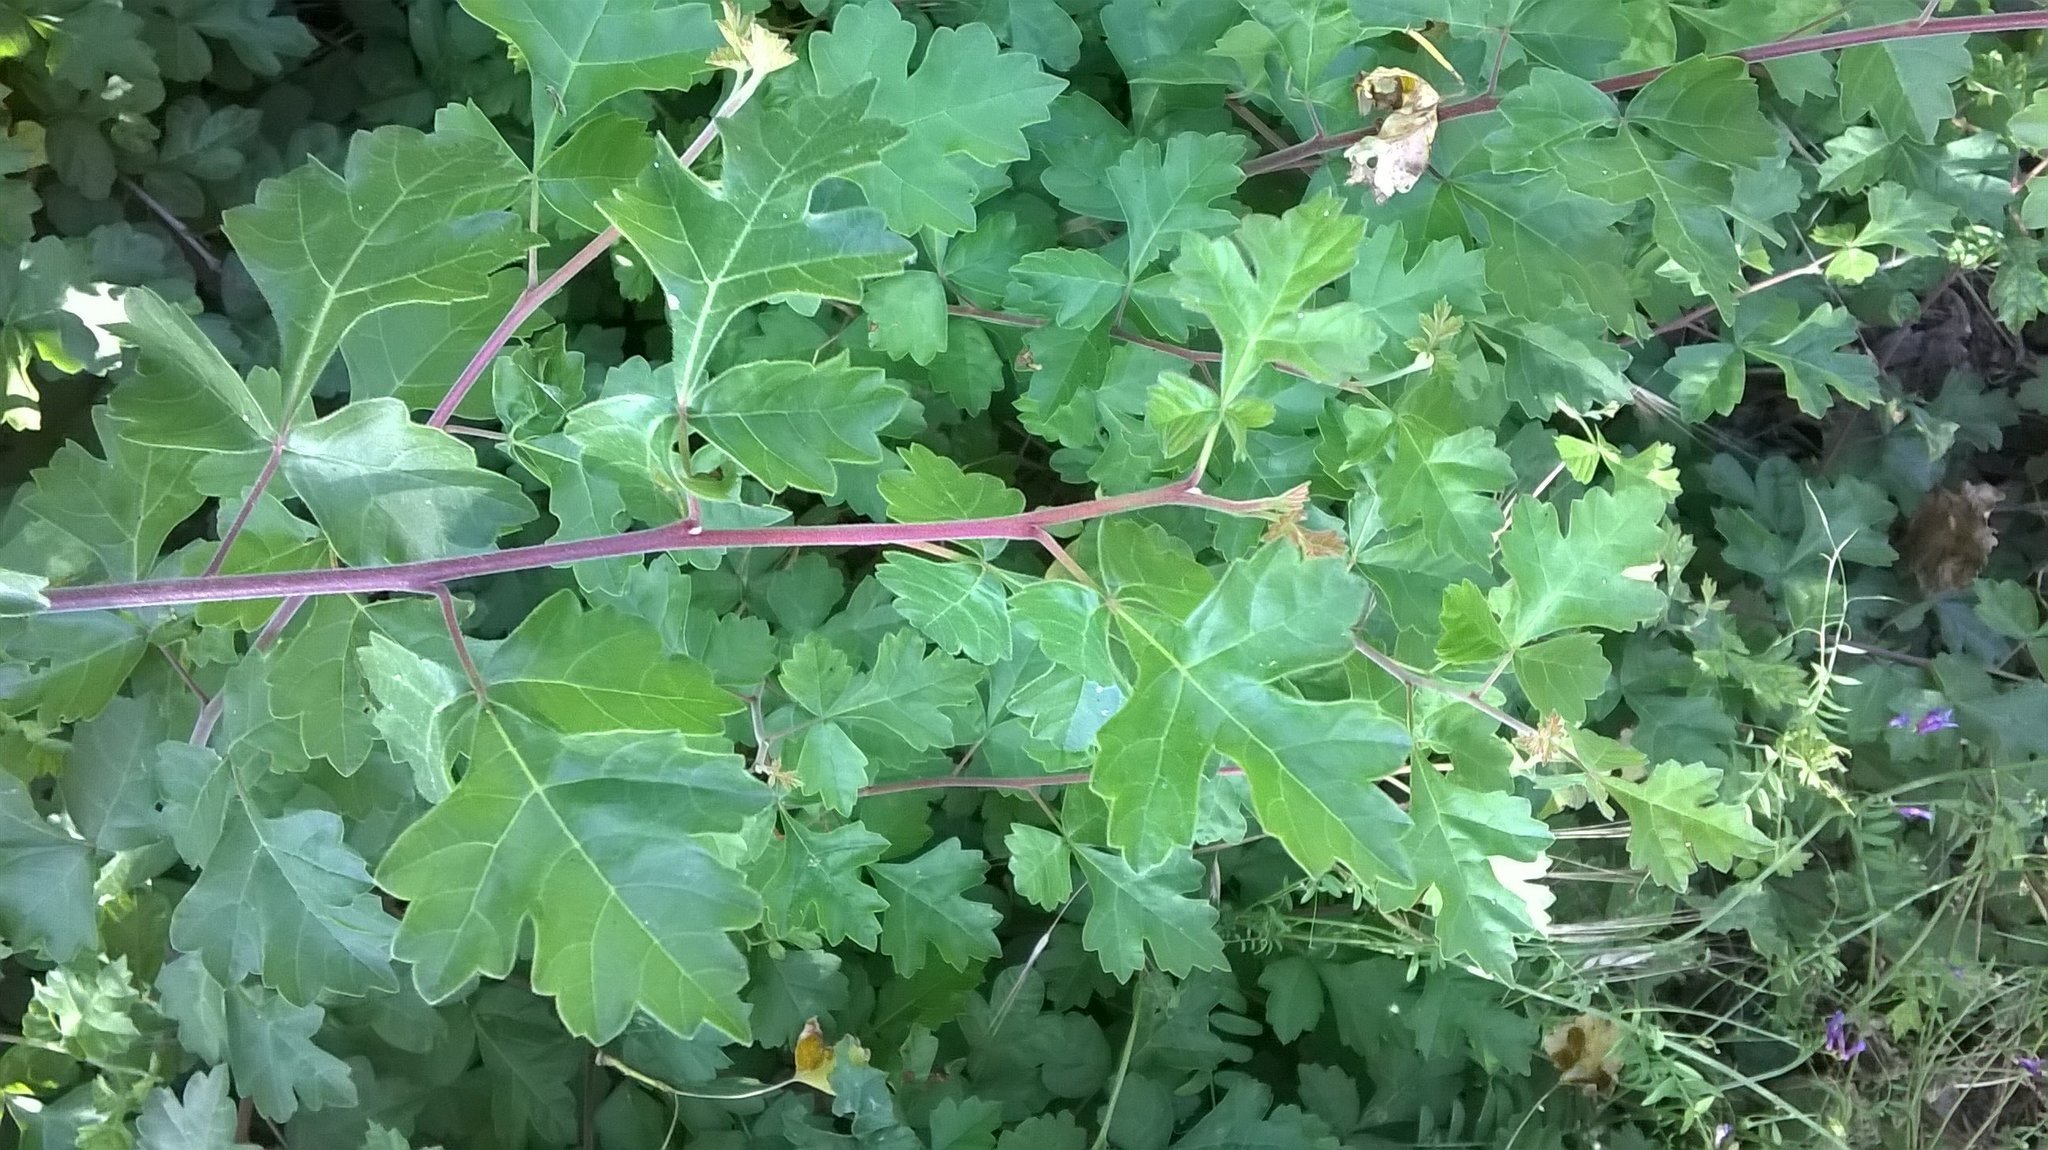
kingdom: Plantae
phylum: Tracheophyta
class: Magnoliopsida
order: Sapindales
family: Anacardiaceae
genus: Rhus
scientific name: Rhus aromatica
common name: Aromatic sumac
